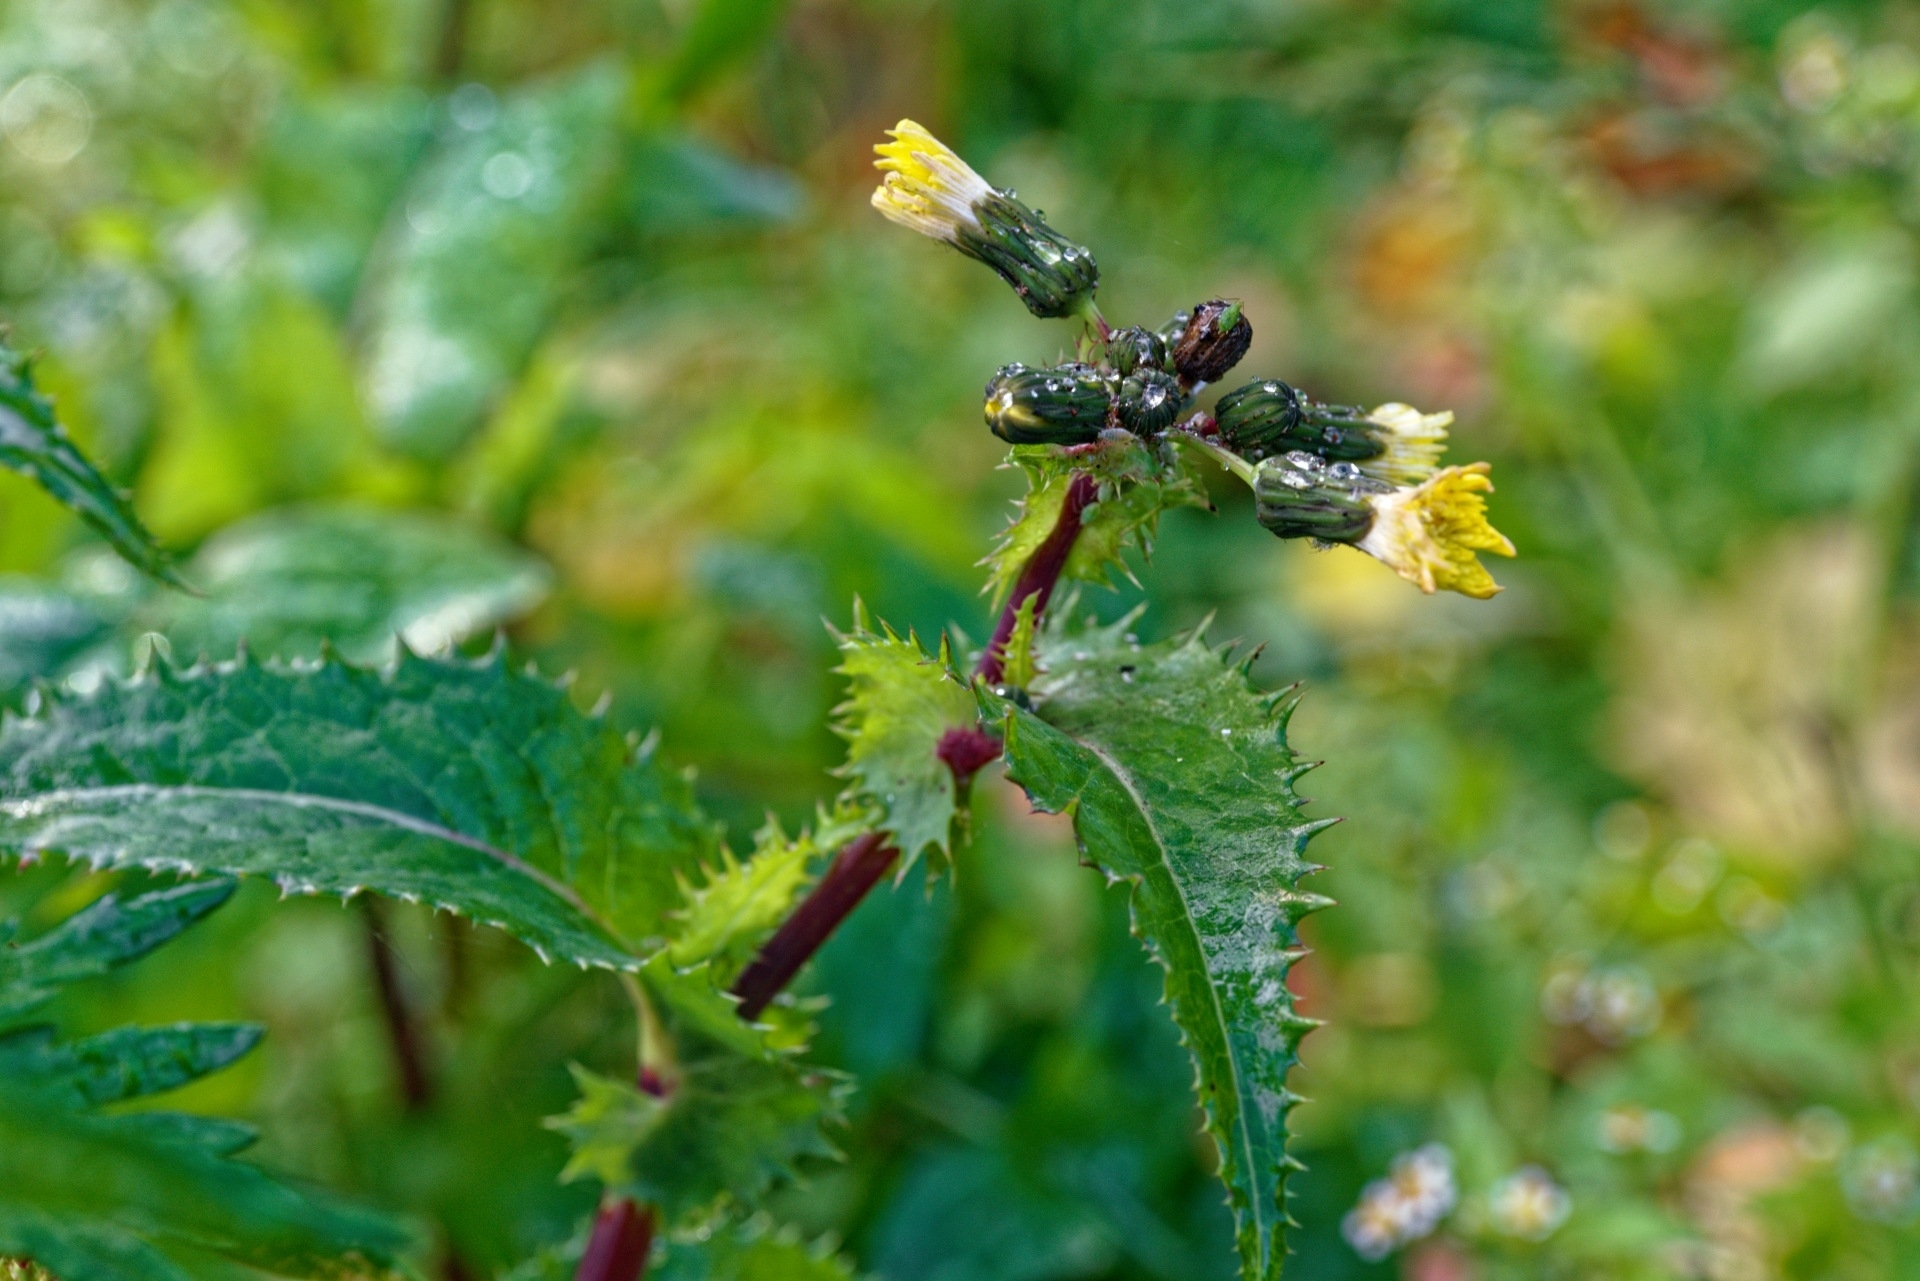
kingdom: Plantae
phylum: Tracheophyta
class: Magnoliopsida
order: Asterales
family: Asteraceae
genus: Sonchus
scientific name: Sonchus oleraceus
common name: Common sowthistle
